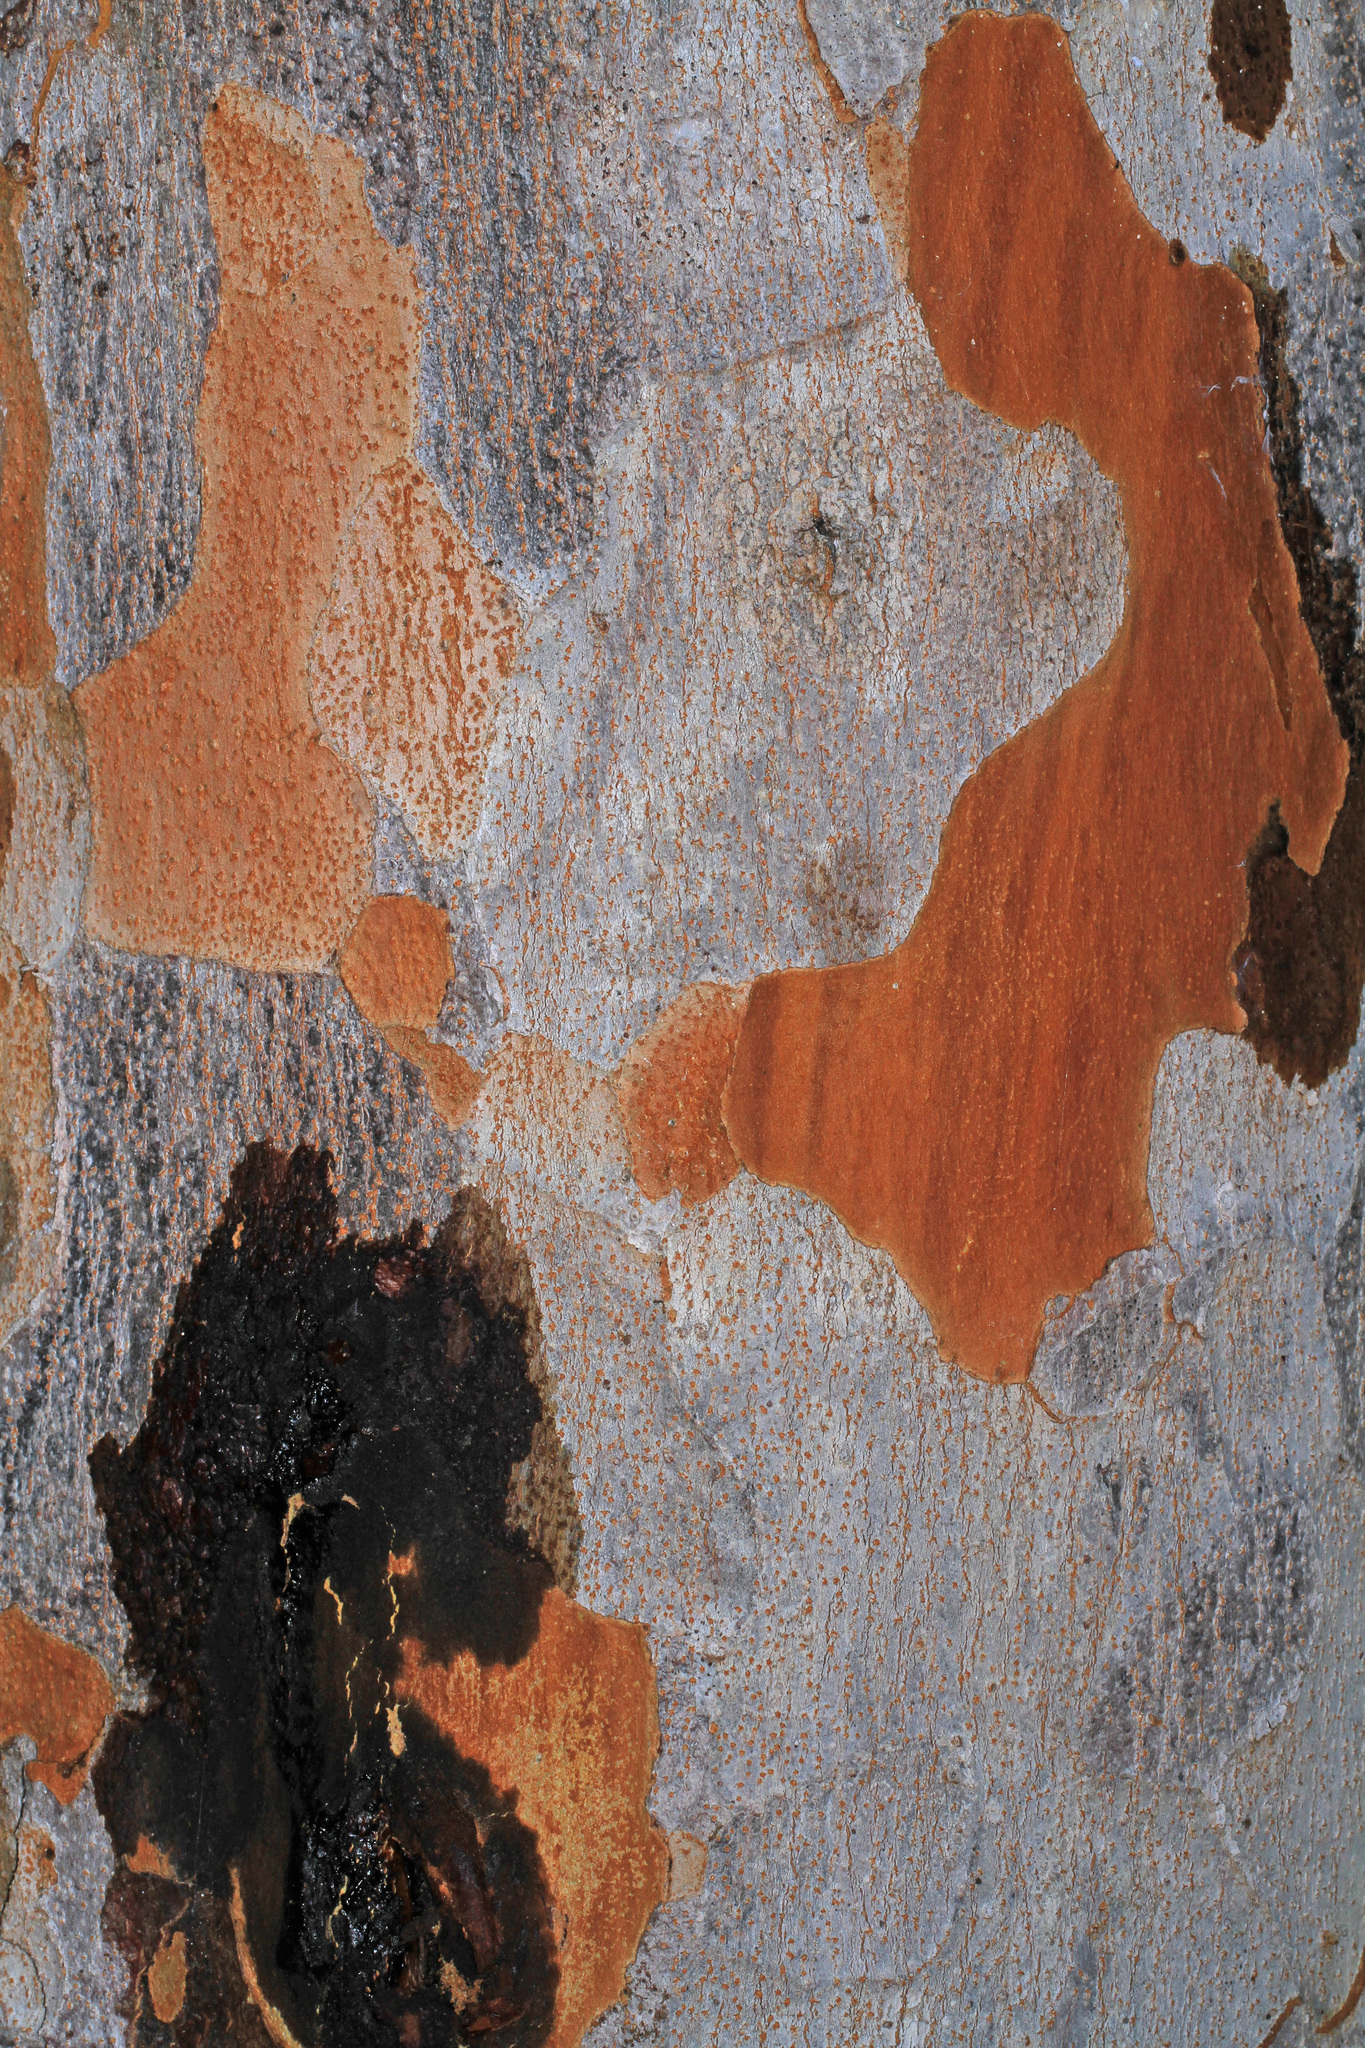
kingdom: Plantae
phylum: Tracheophyta
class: Magnoliopsida
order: Sapindales
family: Anacardiaceae
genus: Metopium
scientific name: Metopium toxiferum
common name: Florida poisontree
